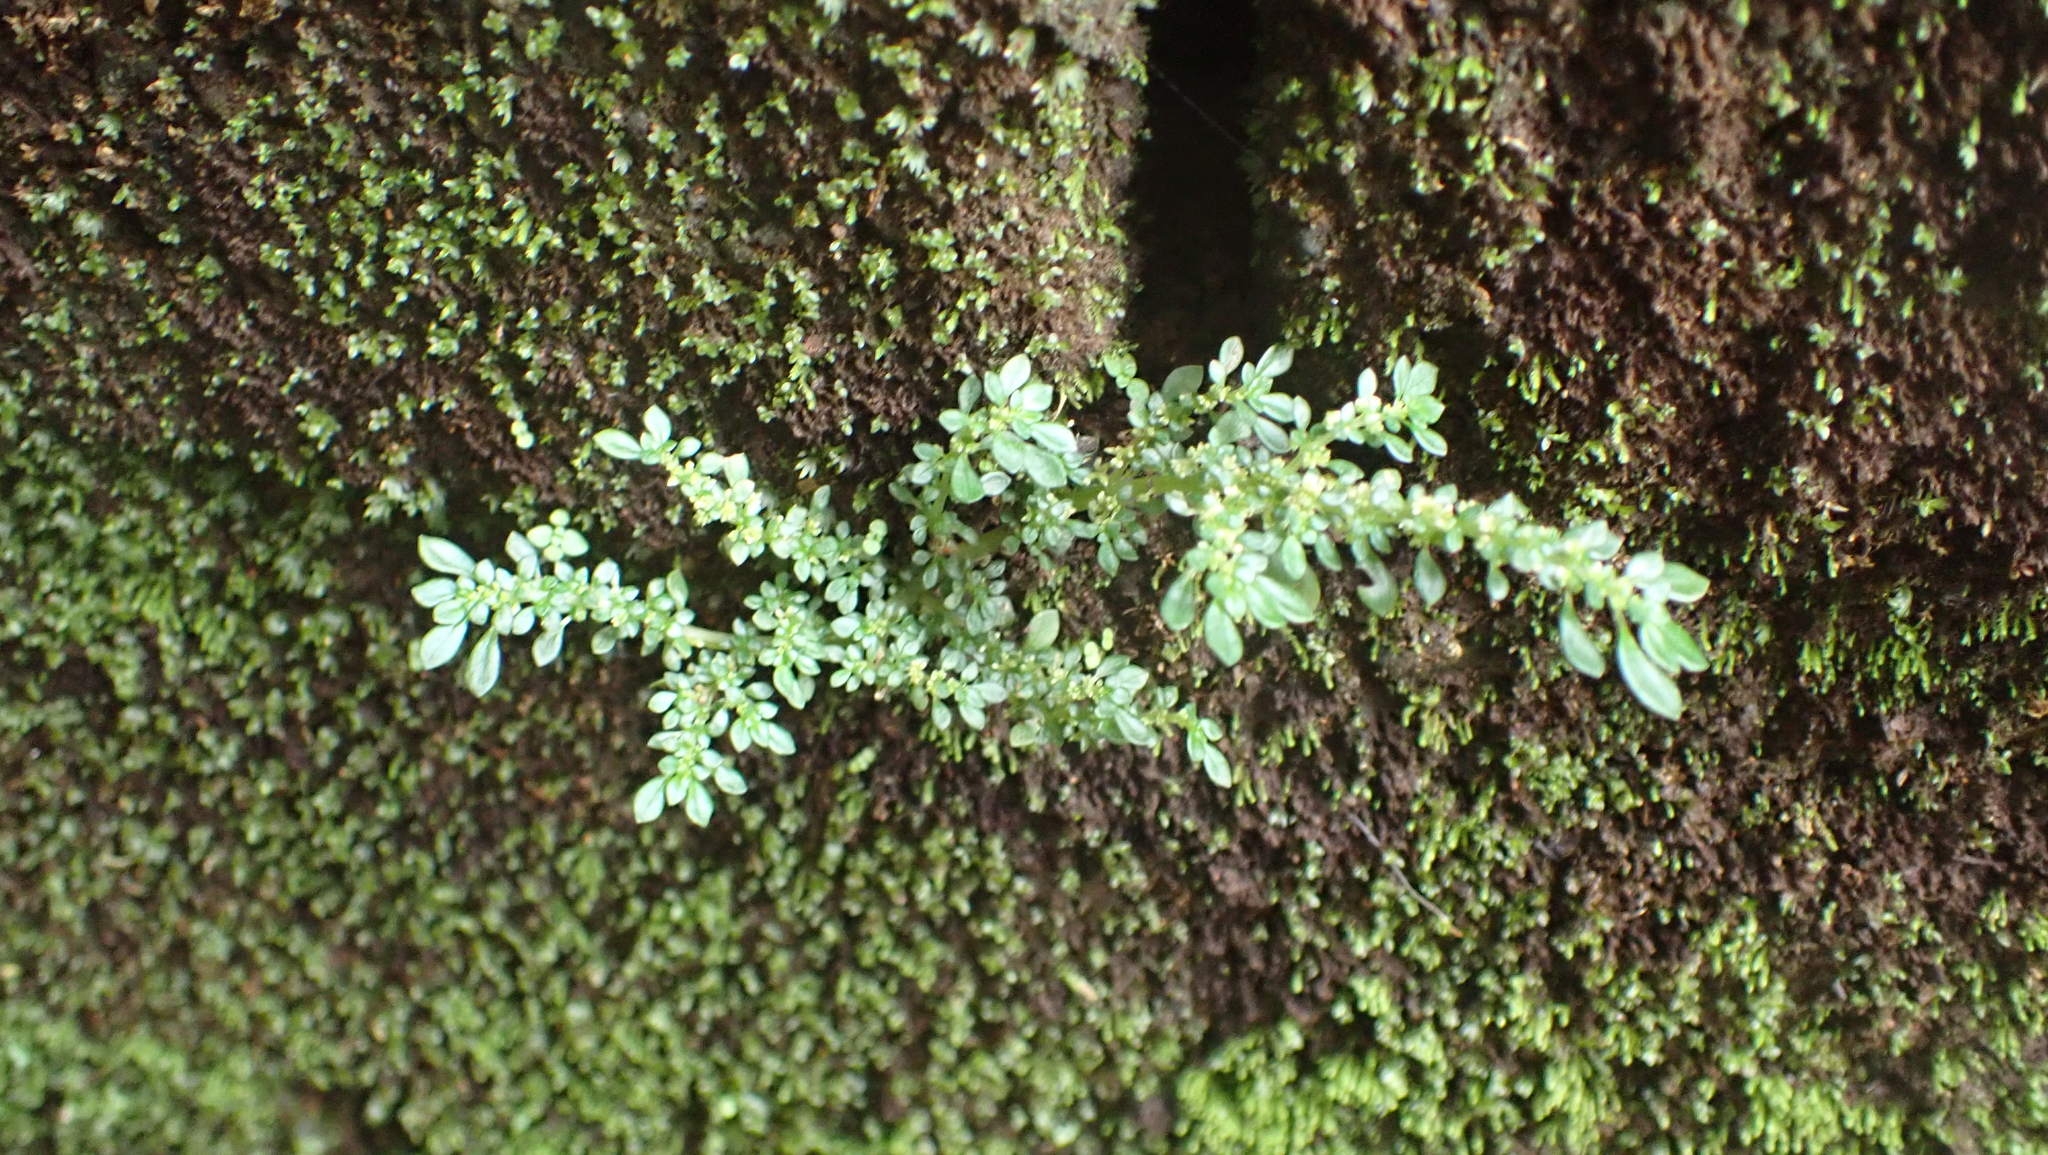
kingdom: Plantae
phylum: Tracheophyta
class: Magnoliopsida
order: Rosales
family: Urticaceae
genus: Pilea
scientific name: Pilea microphylla
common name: Artillery-plant
